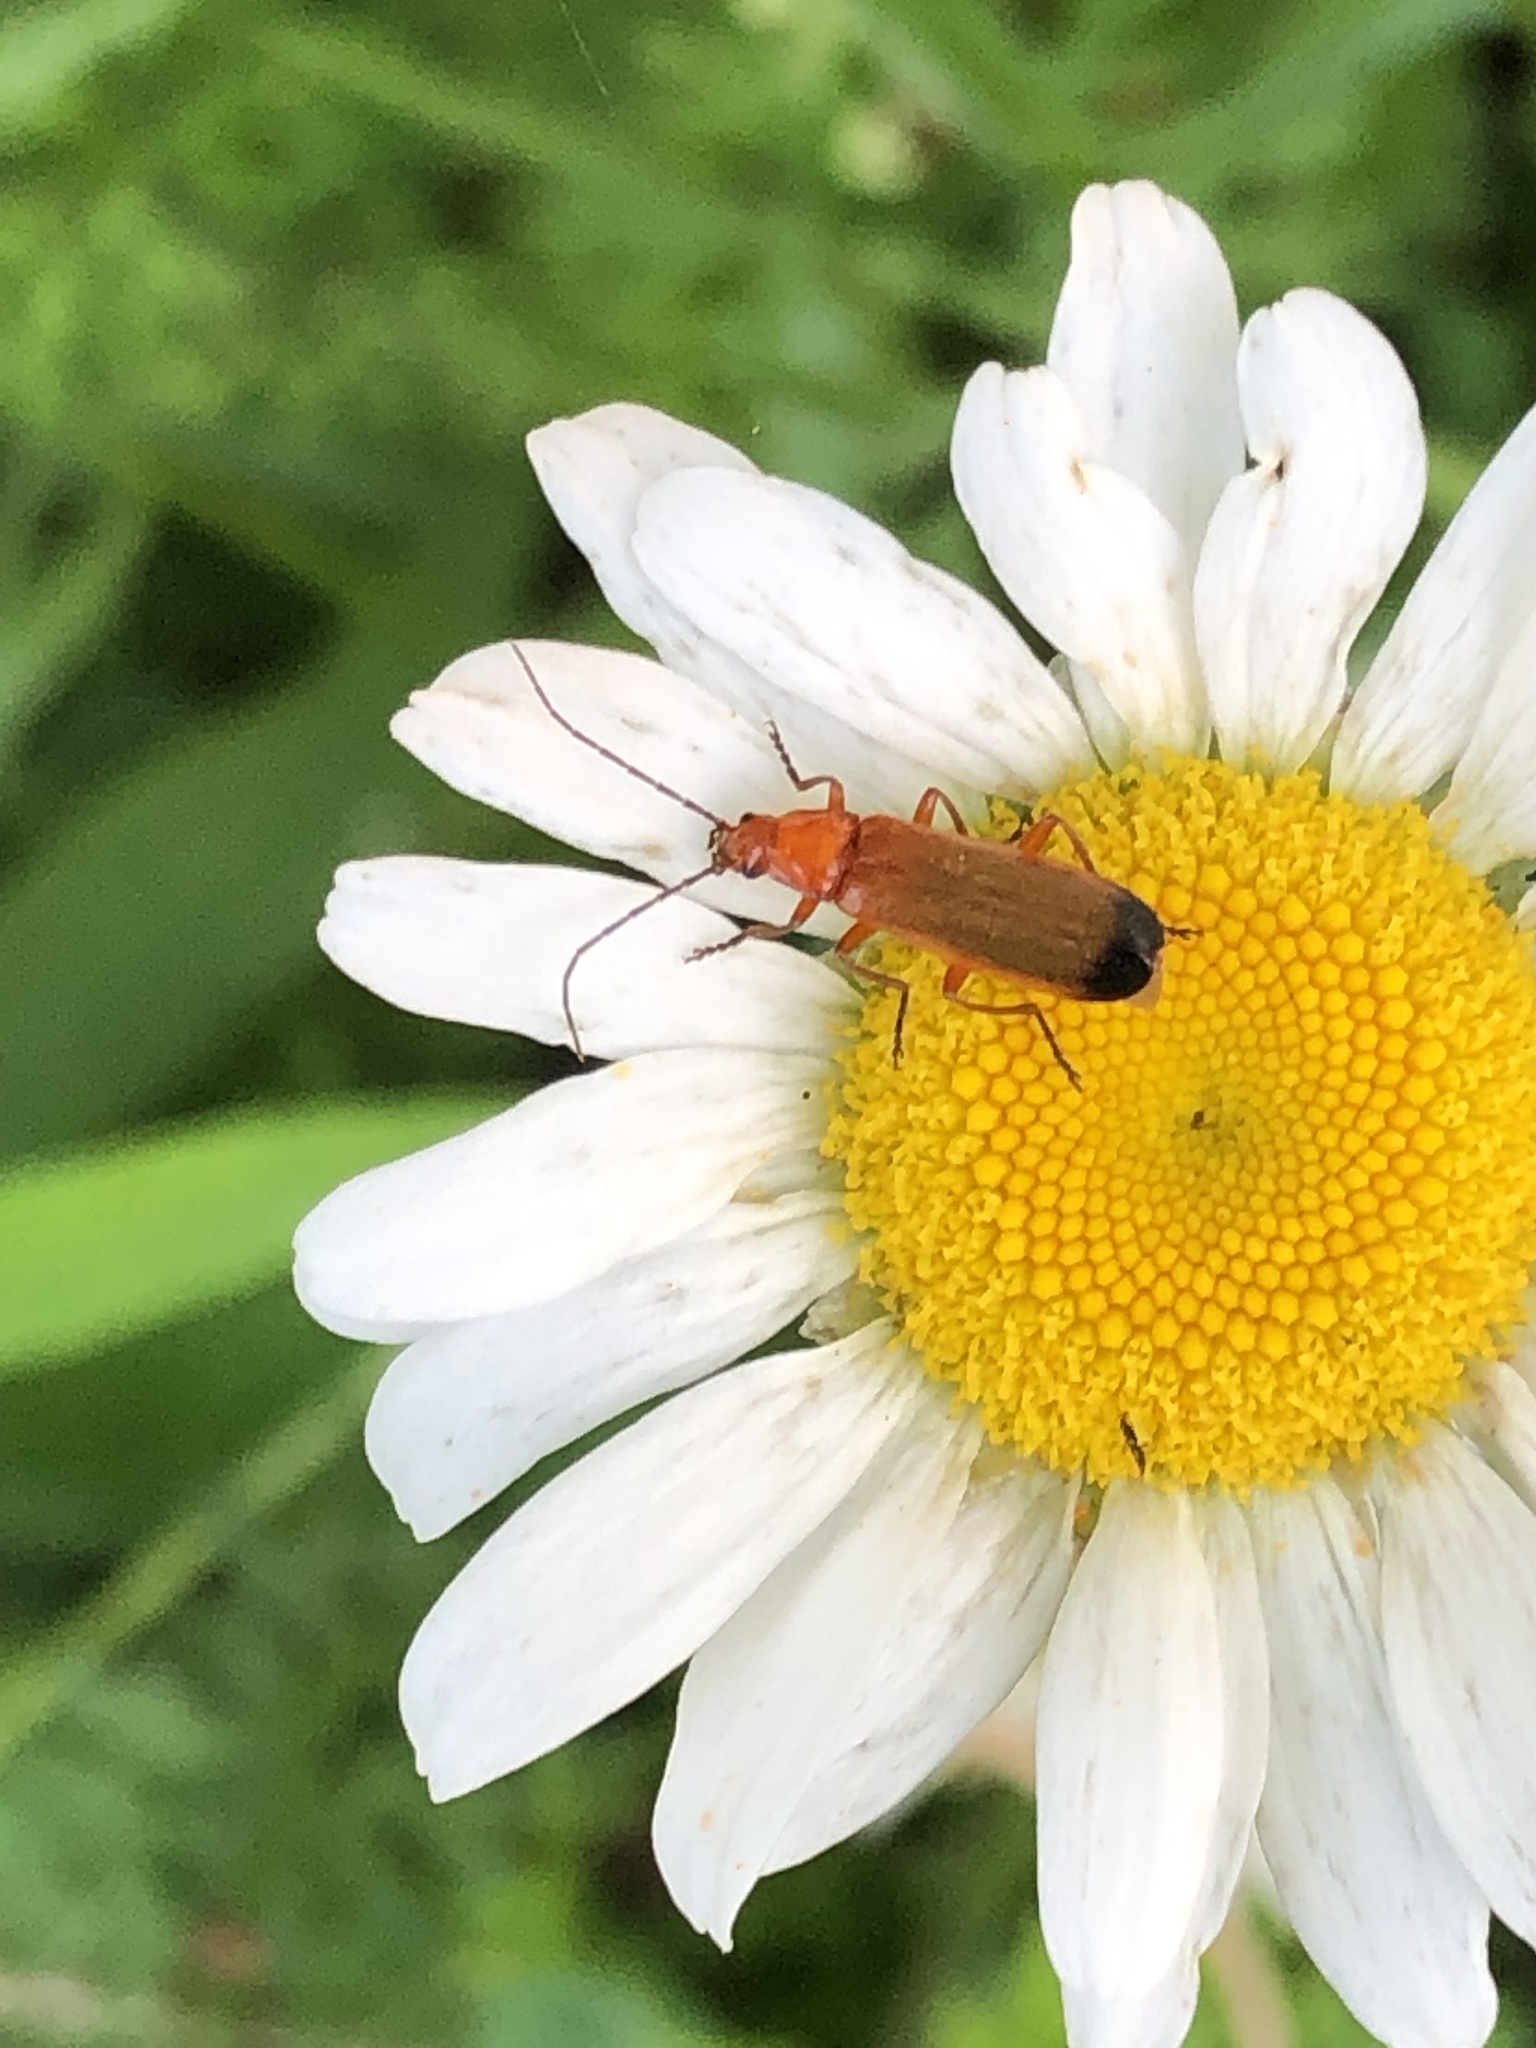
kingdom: Animalia
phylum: Arthropoda
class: Insecta
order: Coleoptera
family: Cantharidae
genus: Rhagonycha
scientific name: Rhagonycha fulva
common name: Common red soldier beetle
